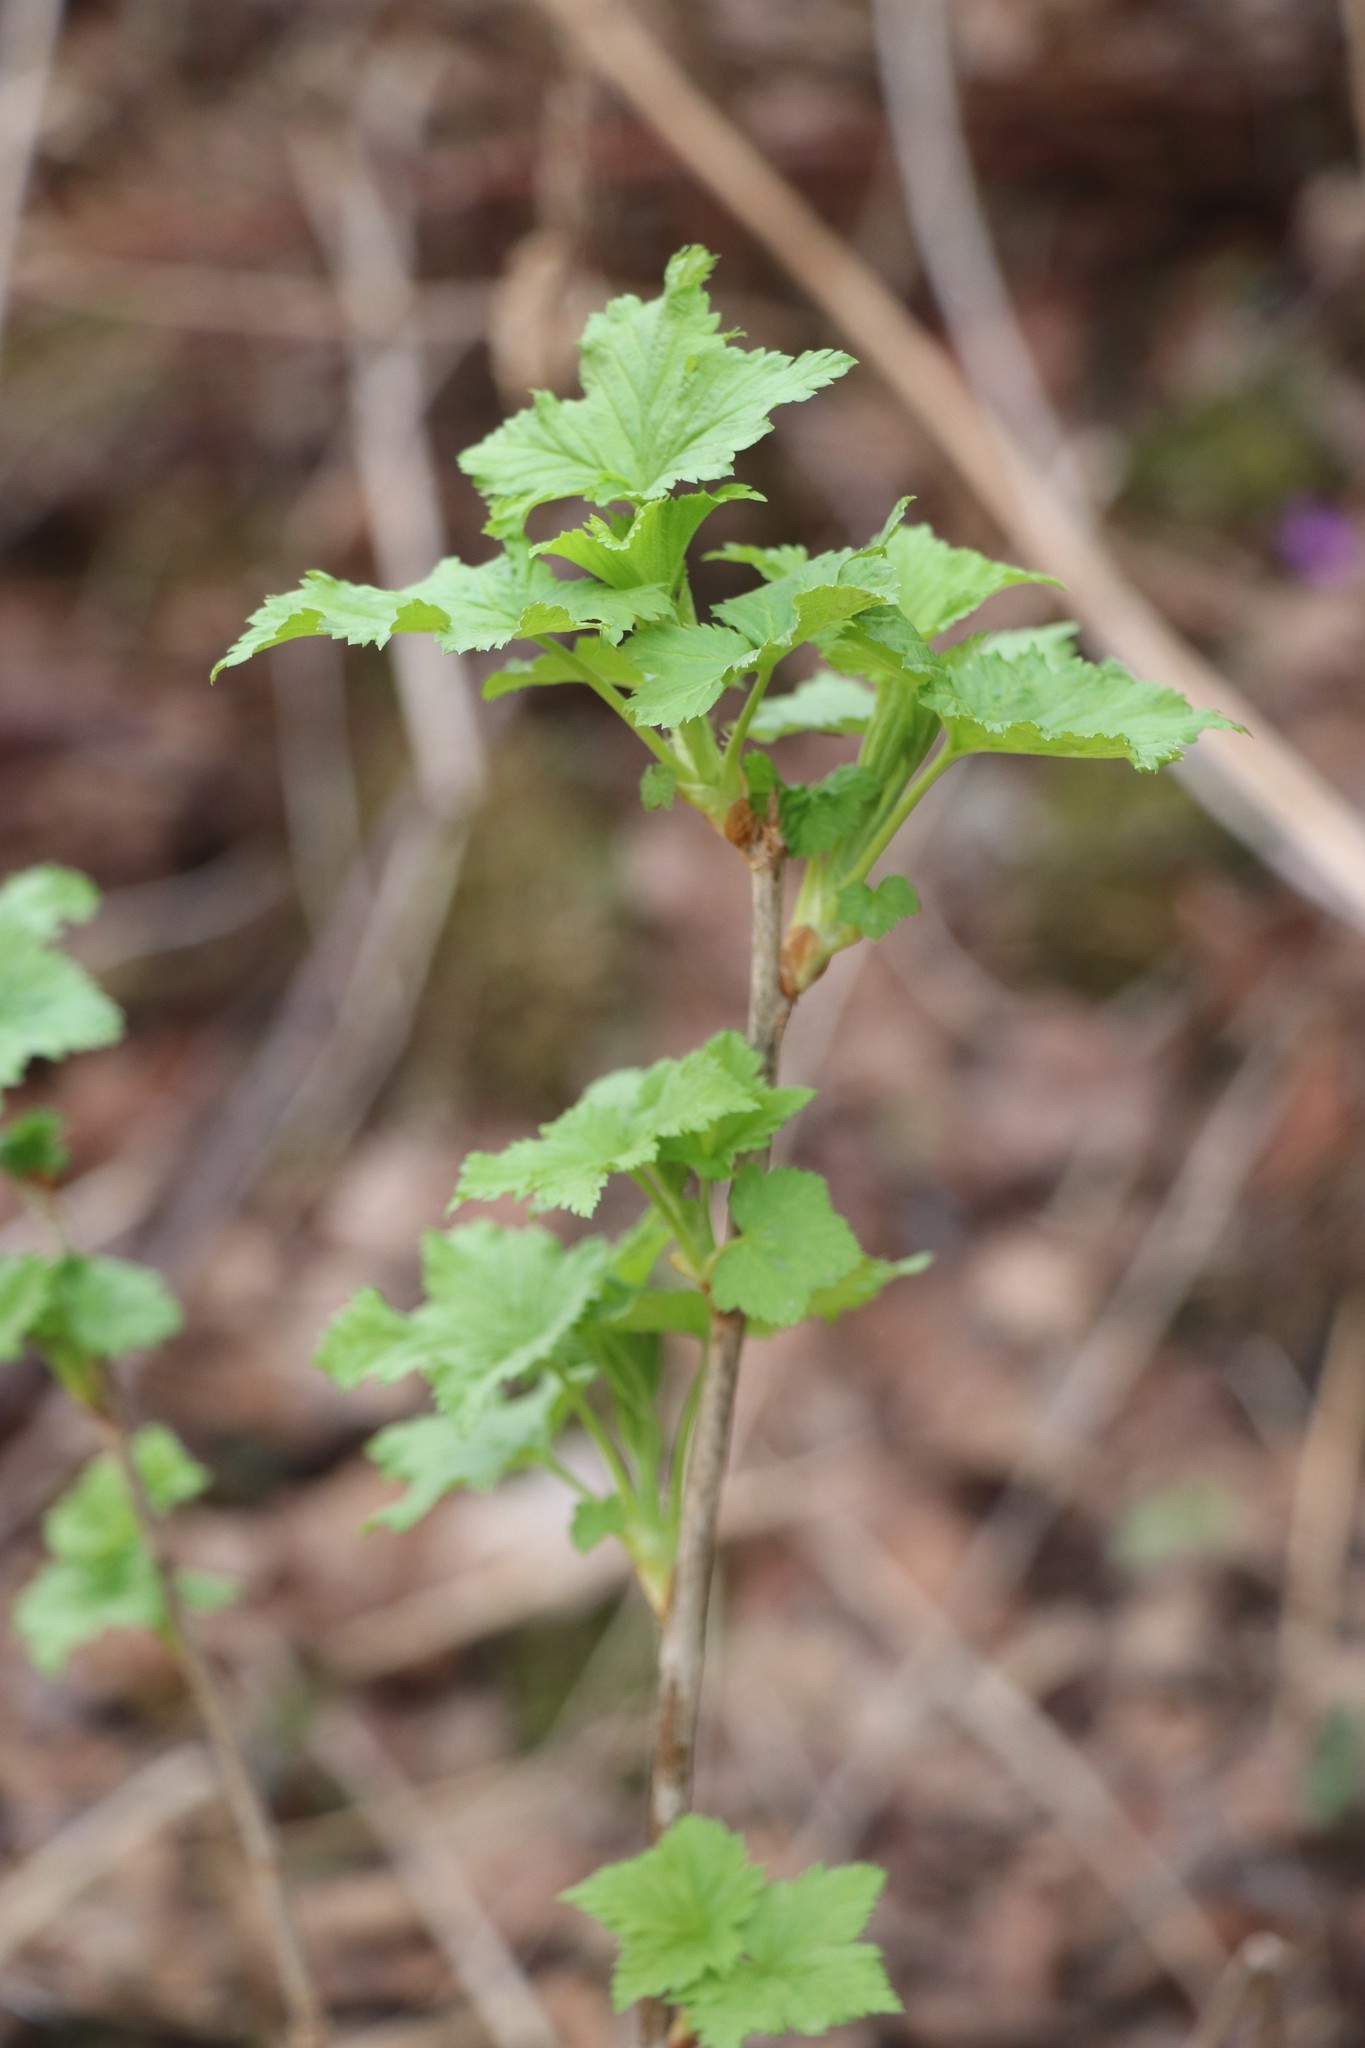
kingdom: Plantae
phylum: Tracheophyta
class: Magnoliopsida
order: Saxifragales
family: Grossulariaceae
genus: Ribes
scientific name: Ribes nigrum
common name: Black currant
